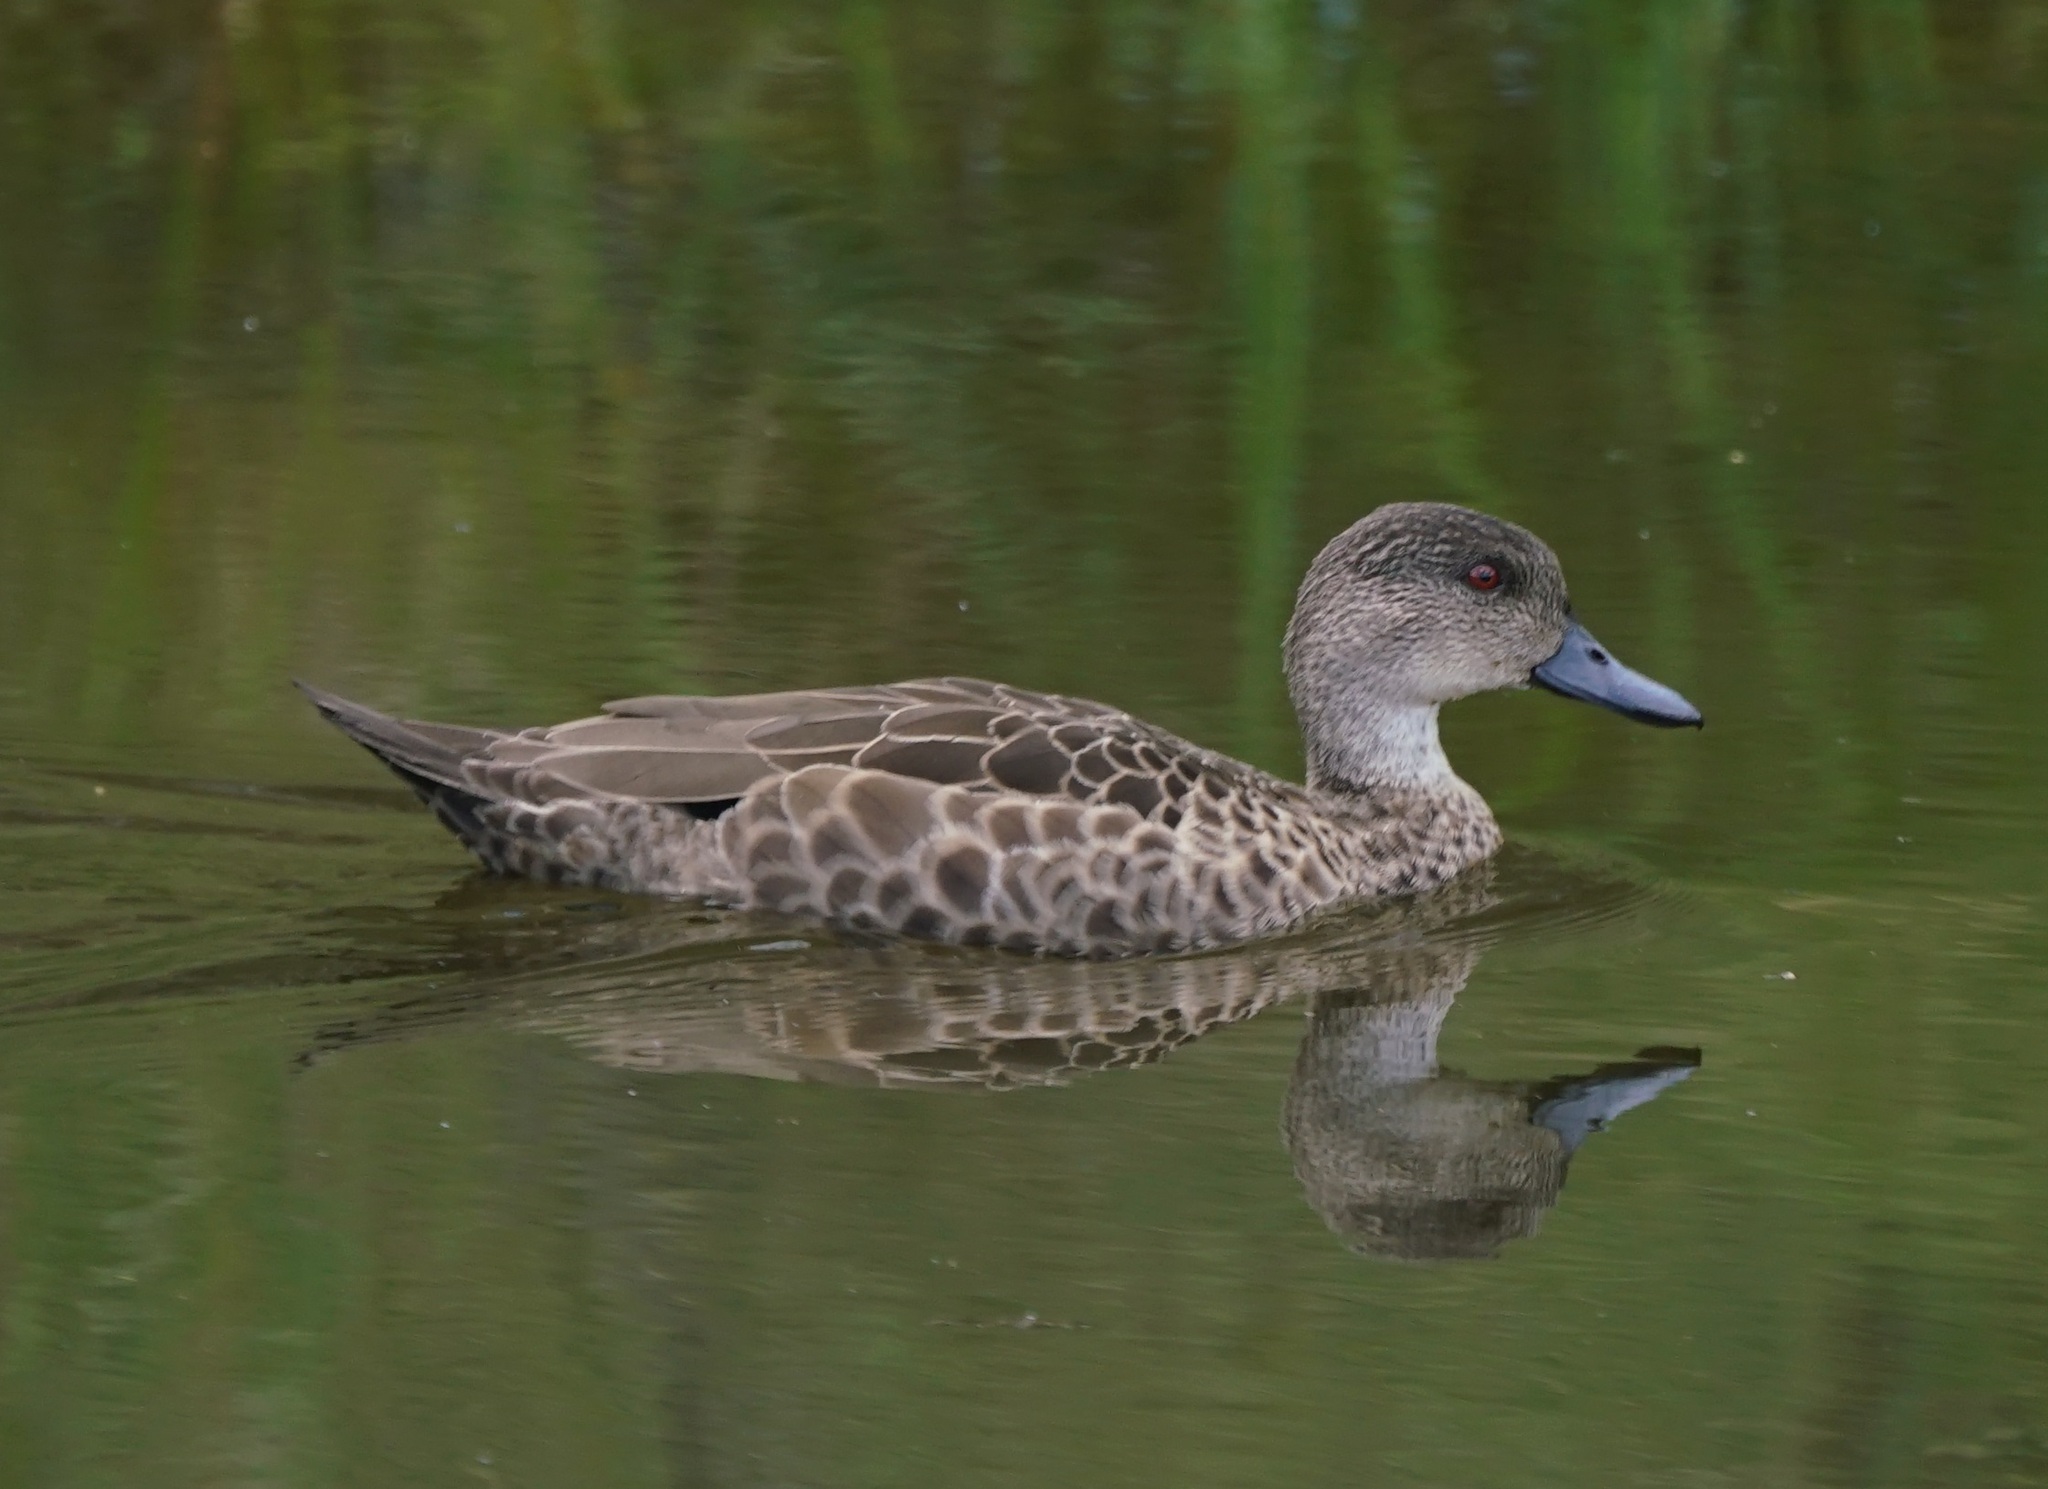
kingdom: Animalia
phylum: Chordata
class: Aves
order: Anseriformes
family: Anatidae
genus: Anas
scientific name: Anas gracilis
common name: Grey teal
